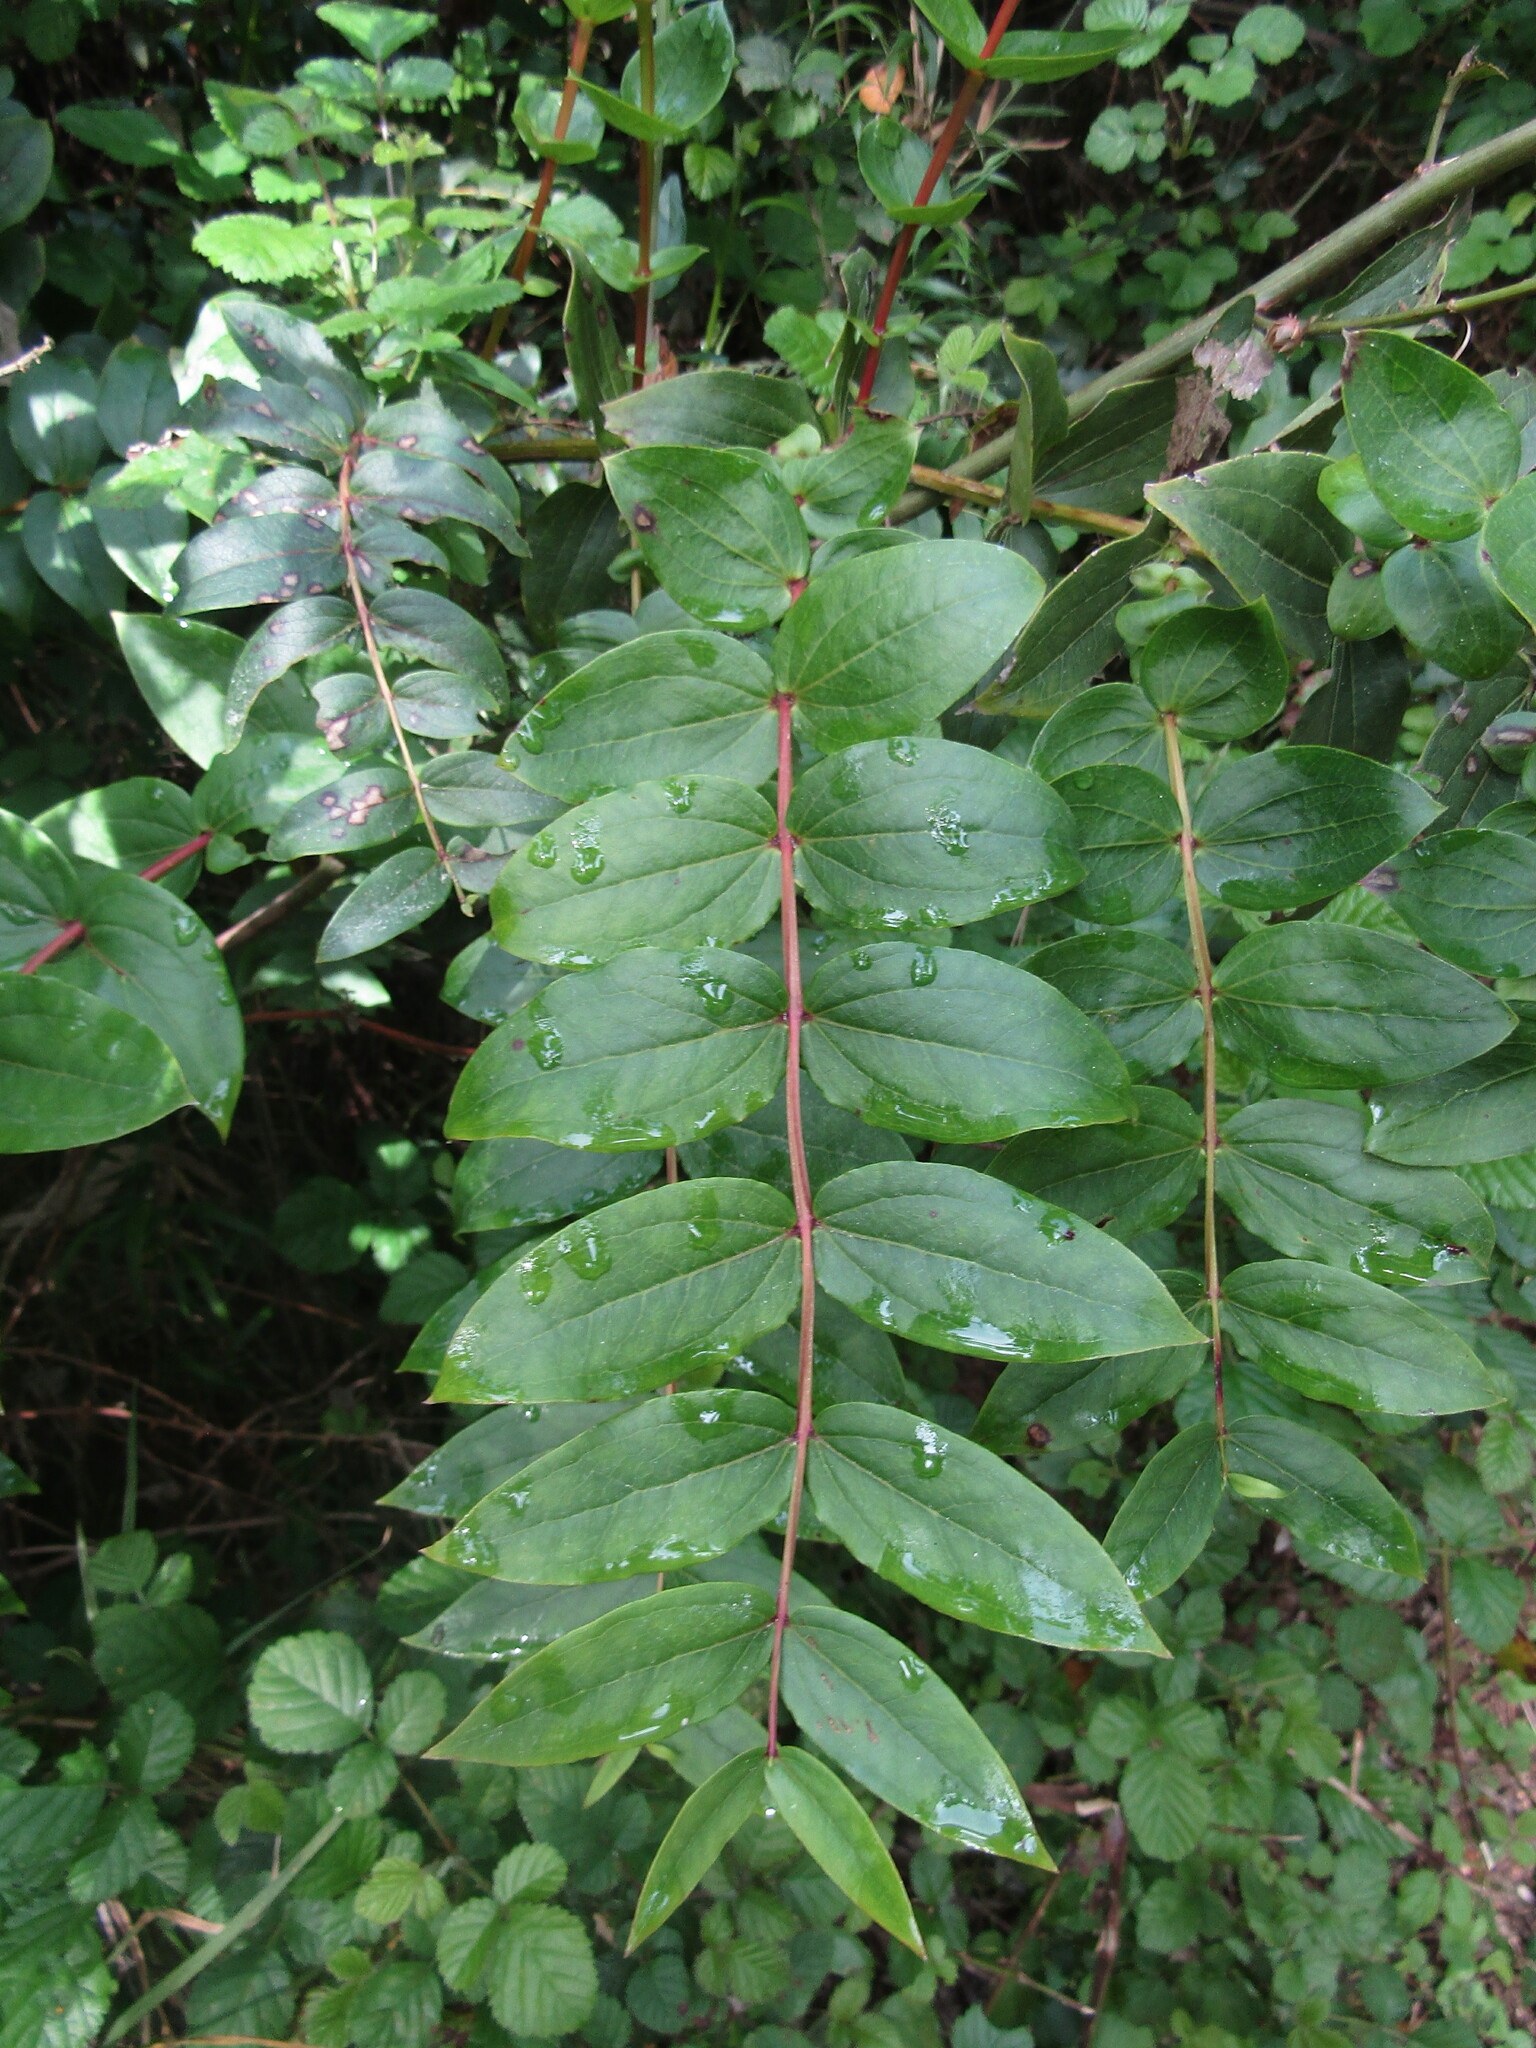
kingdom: Plantae
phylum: Tracheophyta
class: Magnoliopsida
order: Cucurbitales
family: Coriariaceae
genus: Coriaria
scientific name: Coriaria ruscifolia
